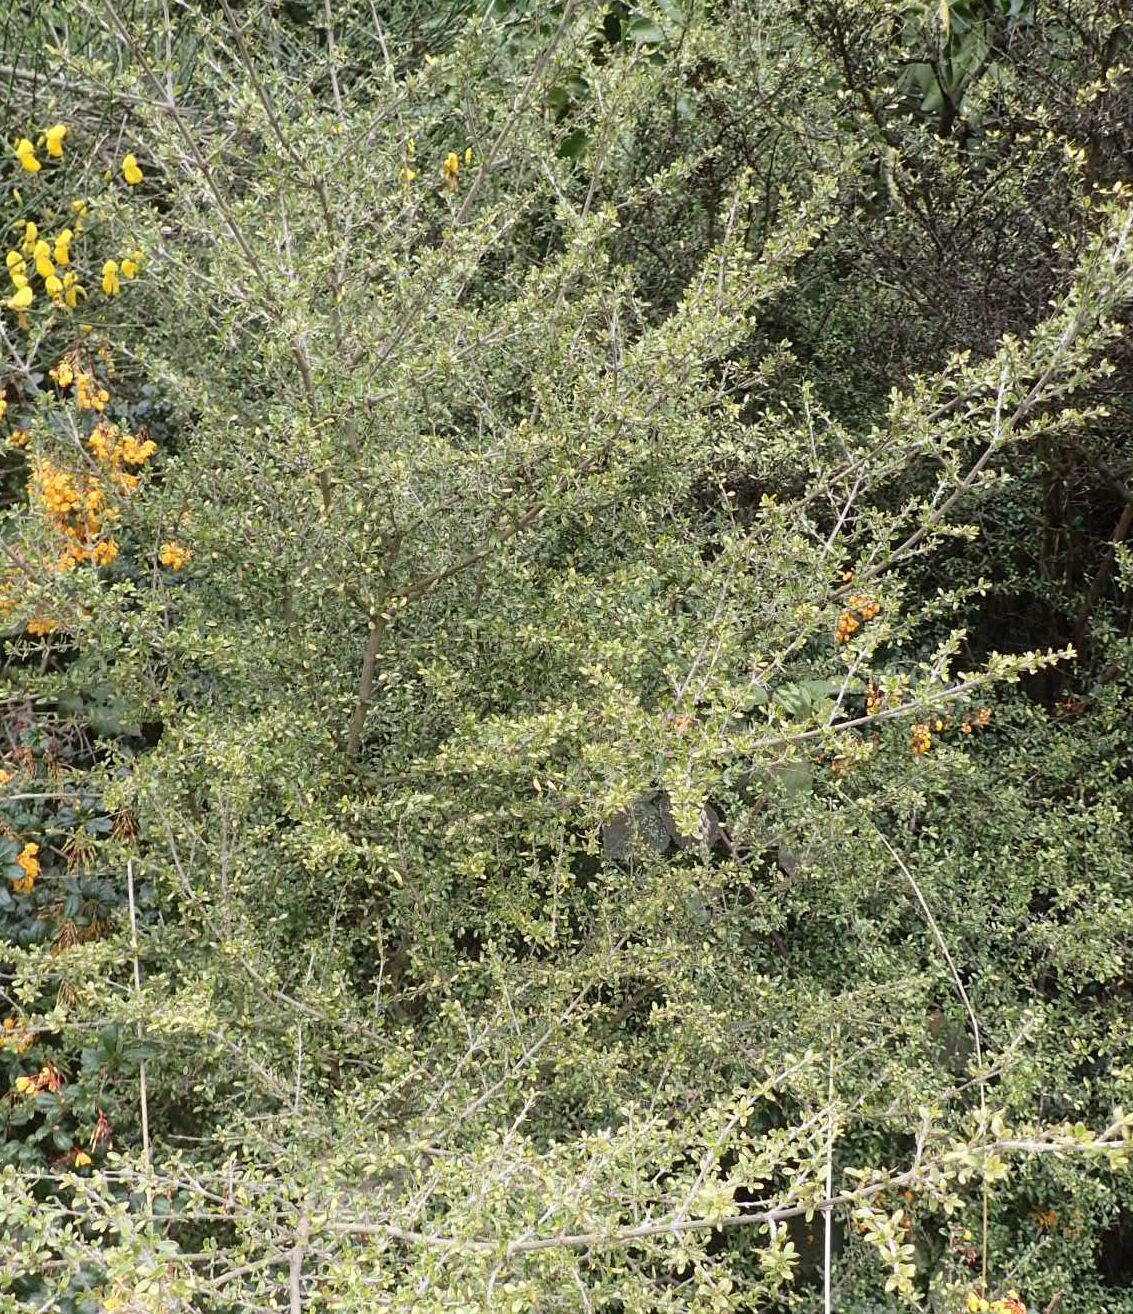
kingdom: Plantae
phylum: Tracheophyta
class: Magnoliopsida
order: Gentianales
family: Rubiaceae
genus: Coprosma
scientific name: Coprosma dumosa
